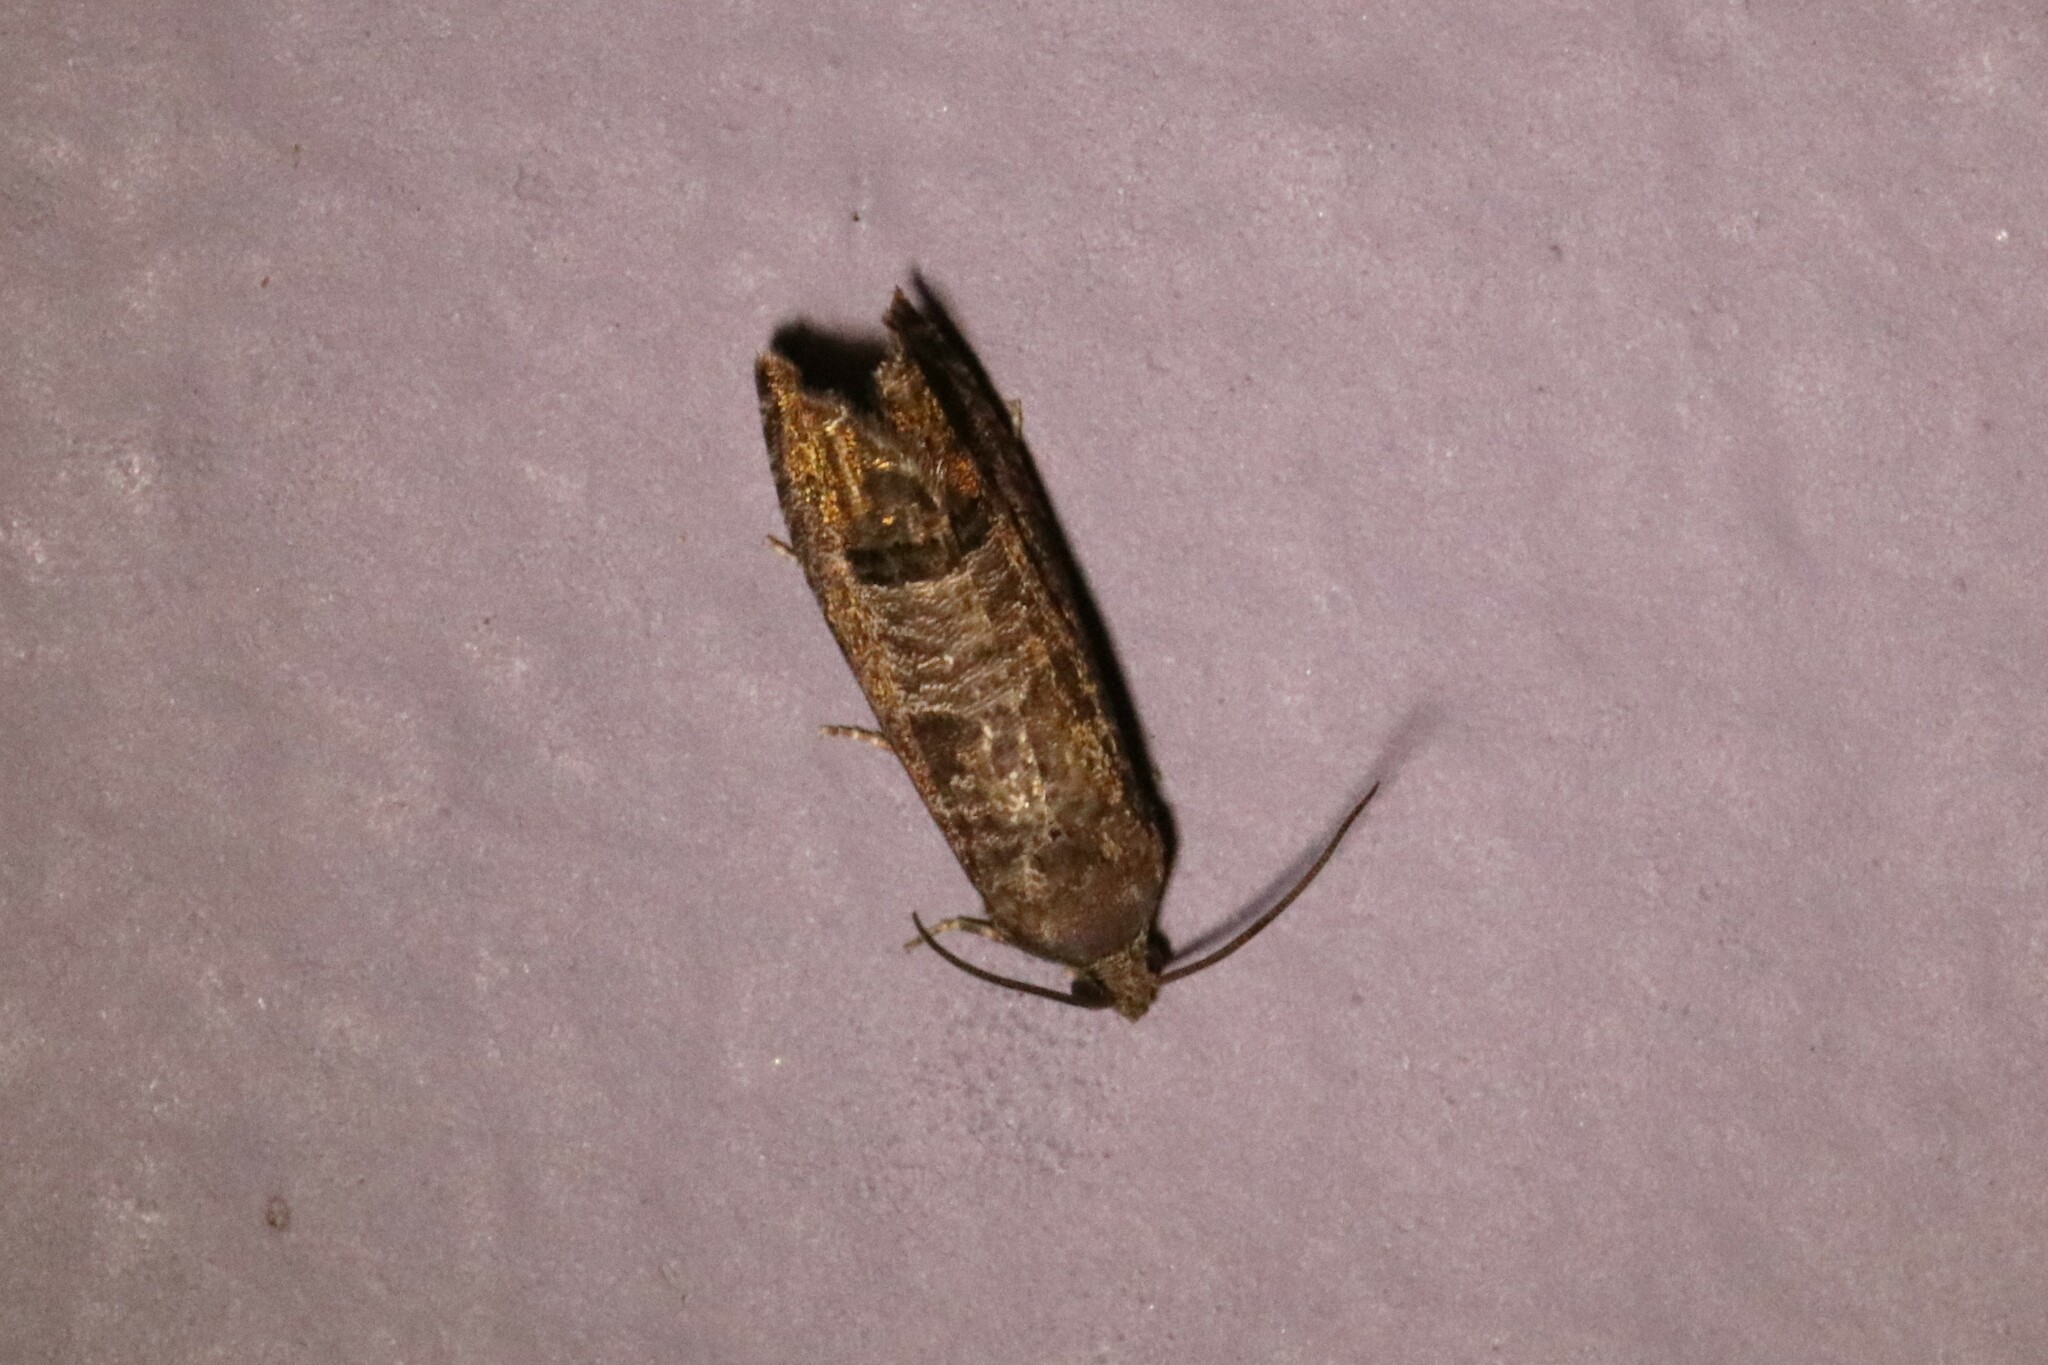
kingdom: Animalia
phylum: Arthropoda
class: Insecta
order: Lepidoptera
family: Tortricidae
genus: Cydia
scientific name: Cydia pomonella
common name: Codling moth
